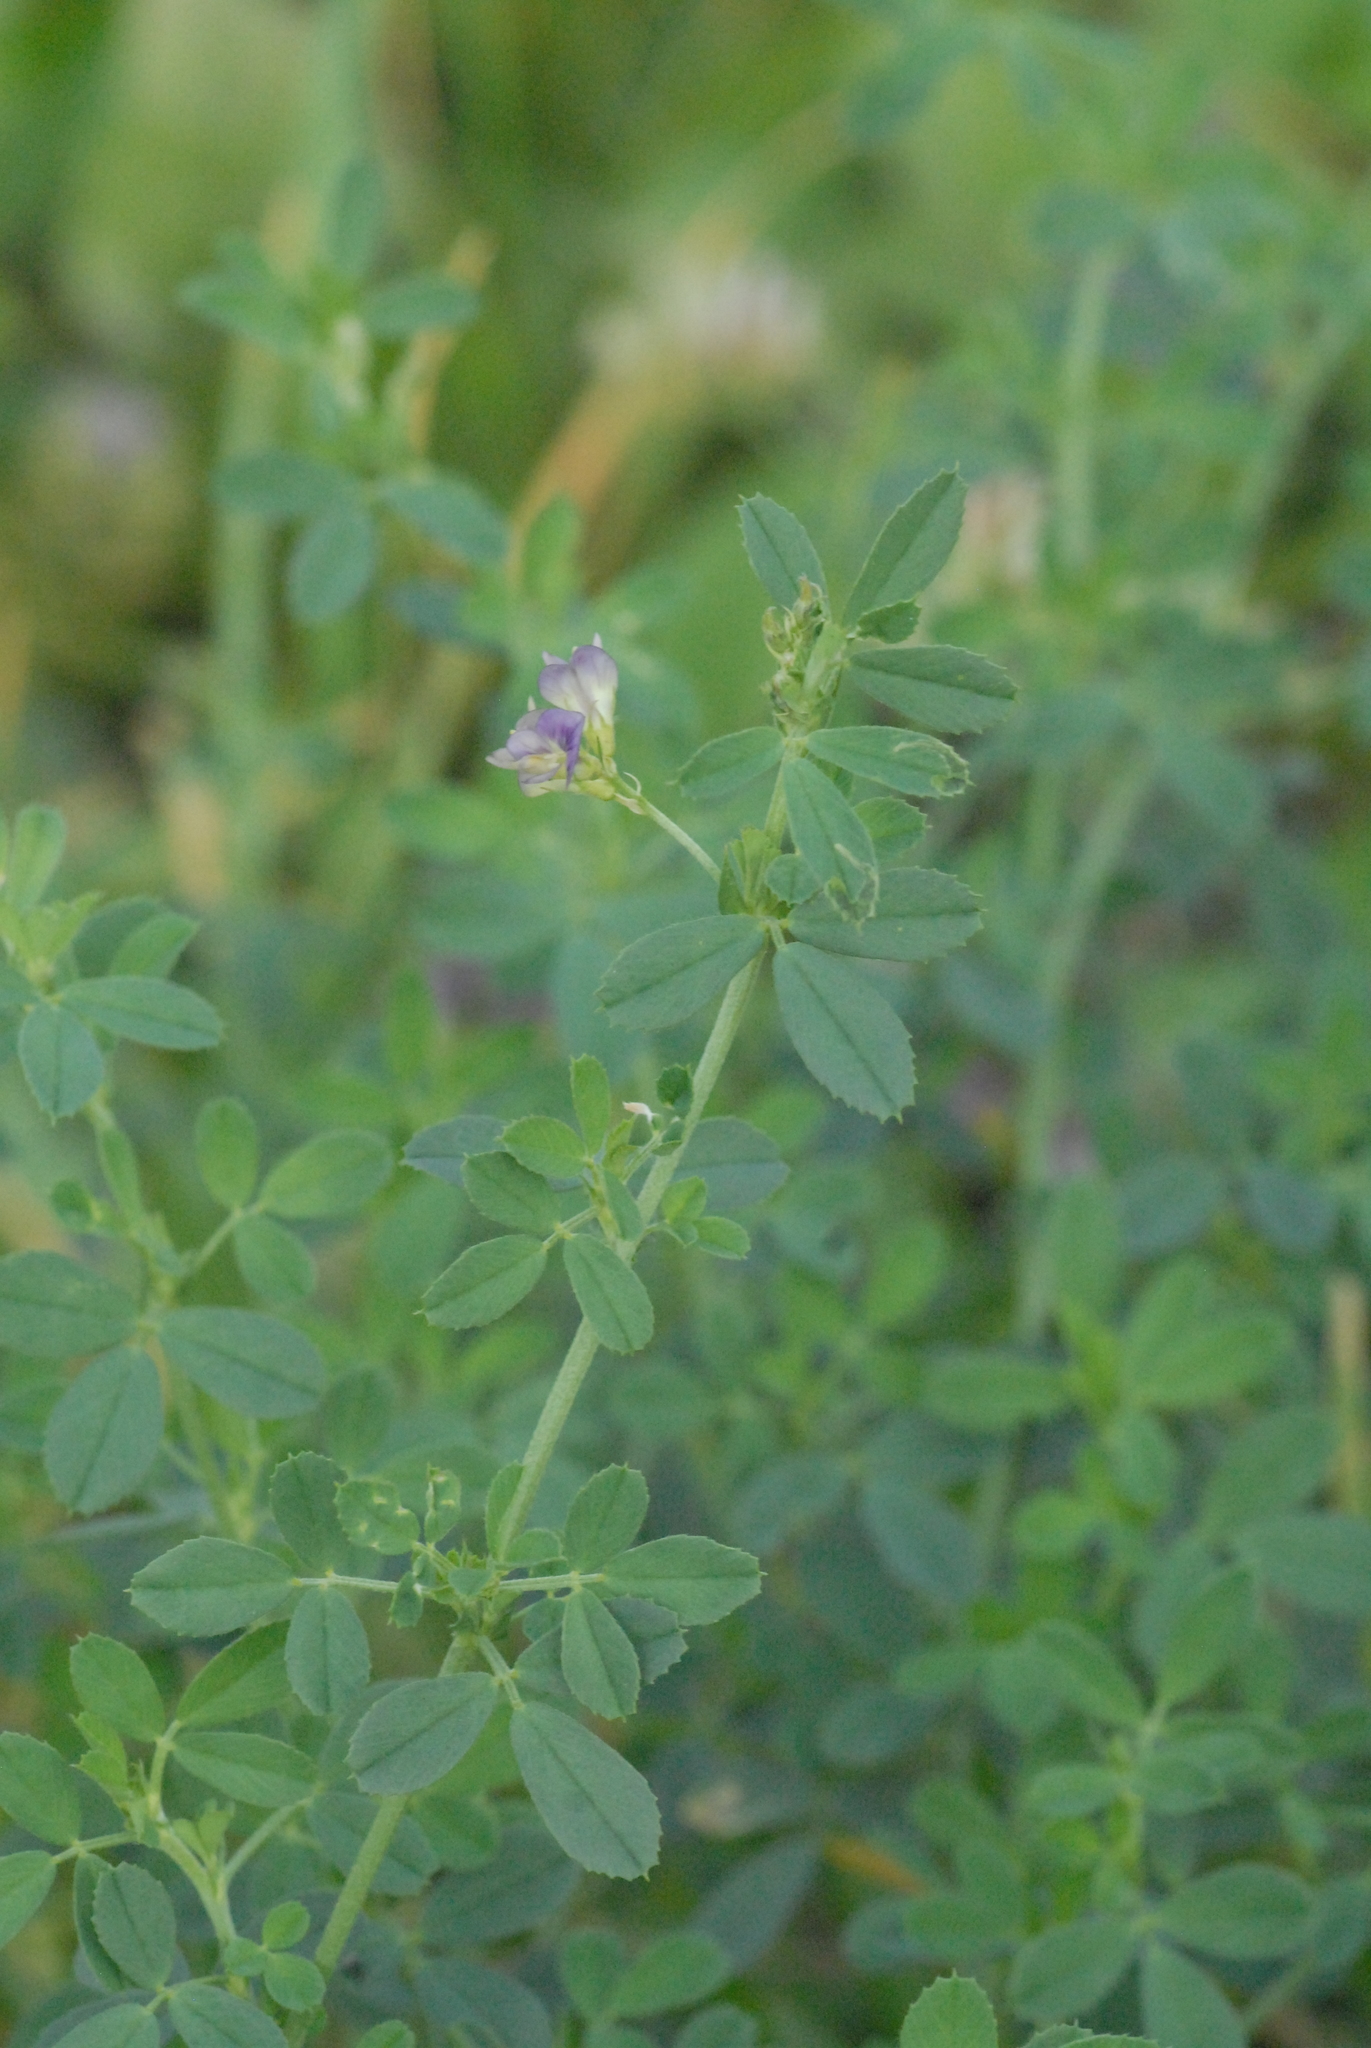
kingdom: Plantae
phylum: Tracheophyta
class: Magnoliopsida
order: Fabales
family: Fabaceae
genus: Medicago
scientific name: Medicago sativa
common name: Alfalfa
